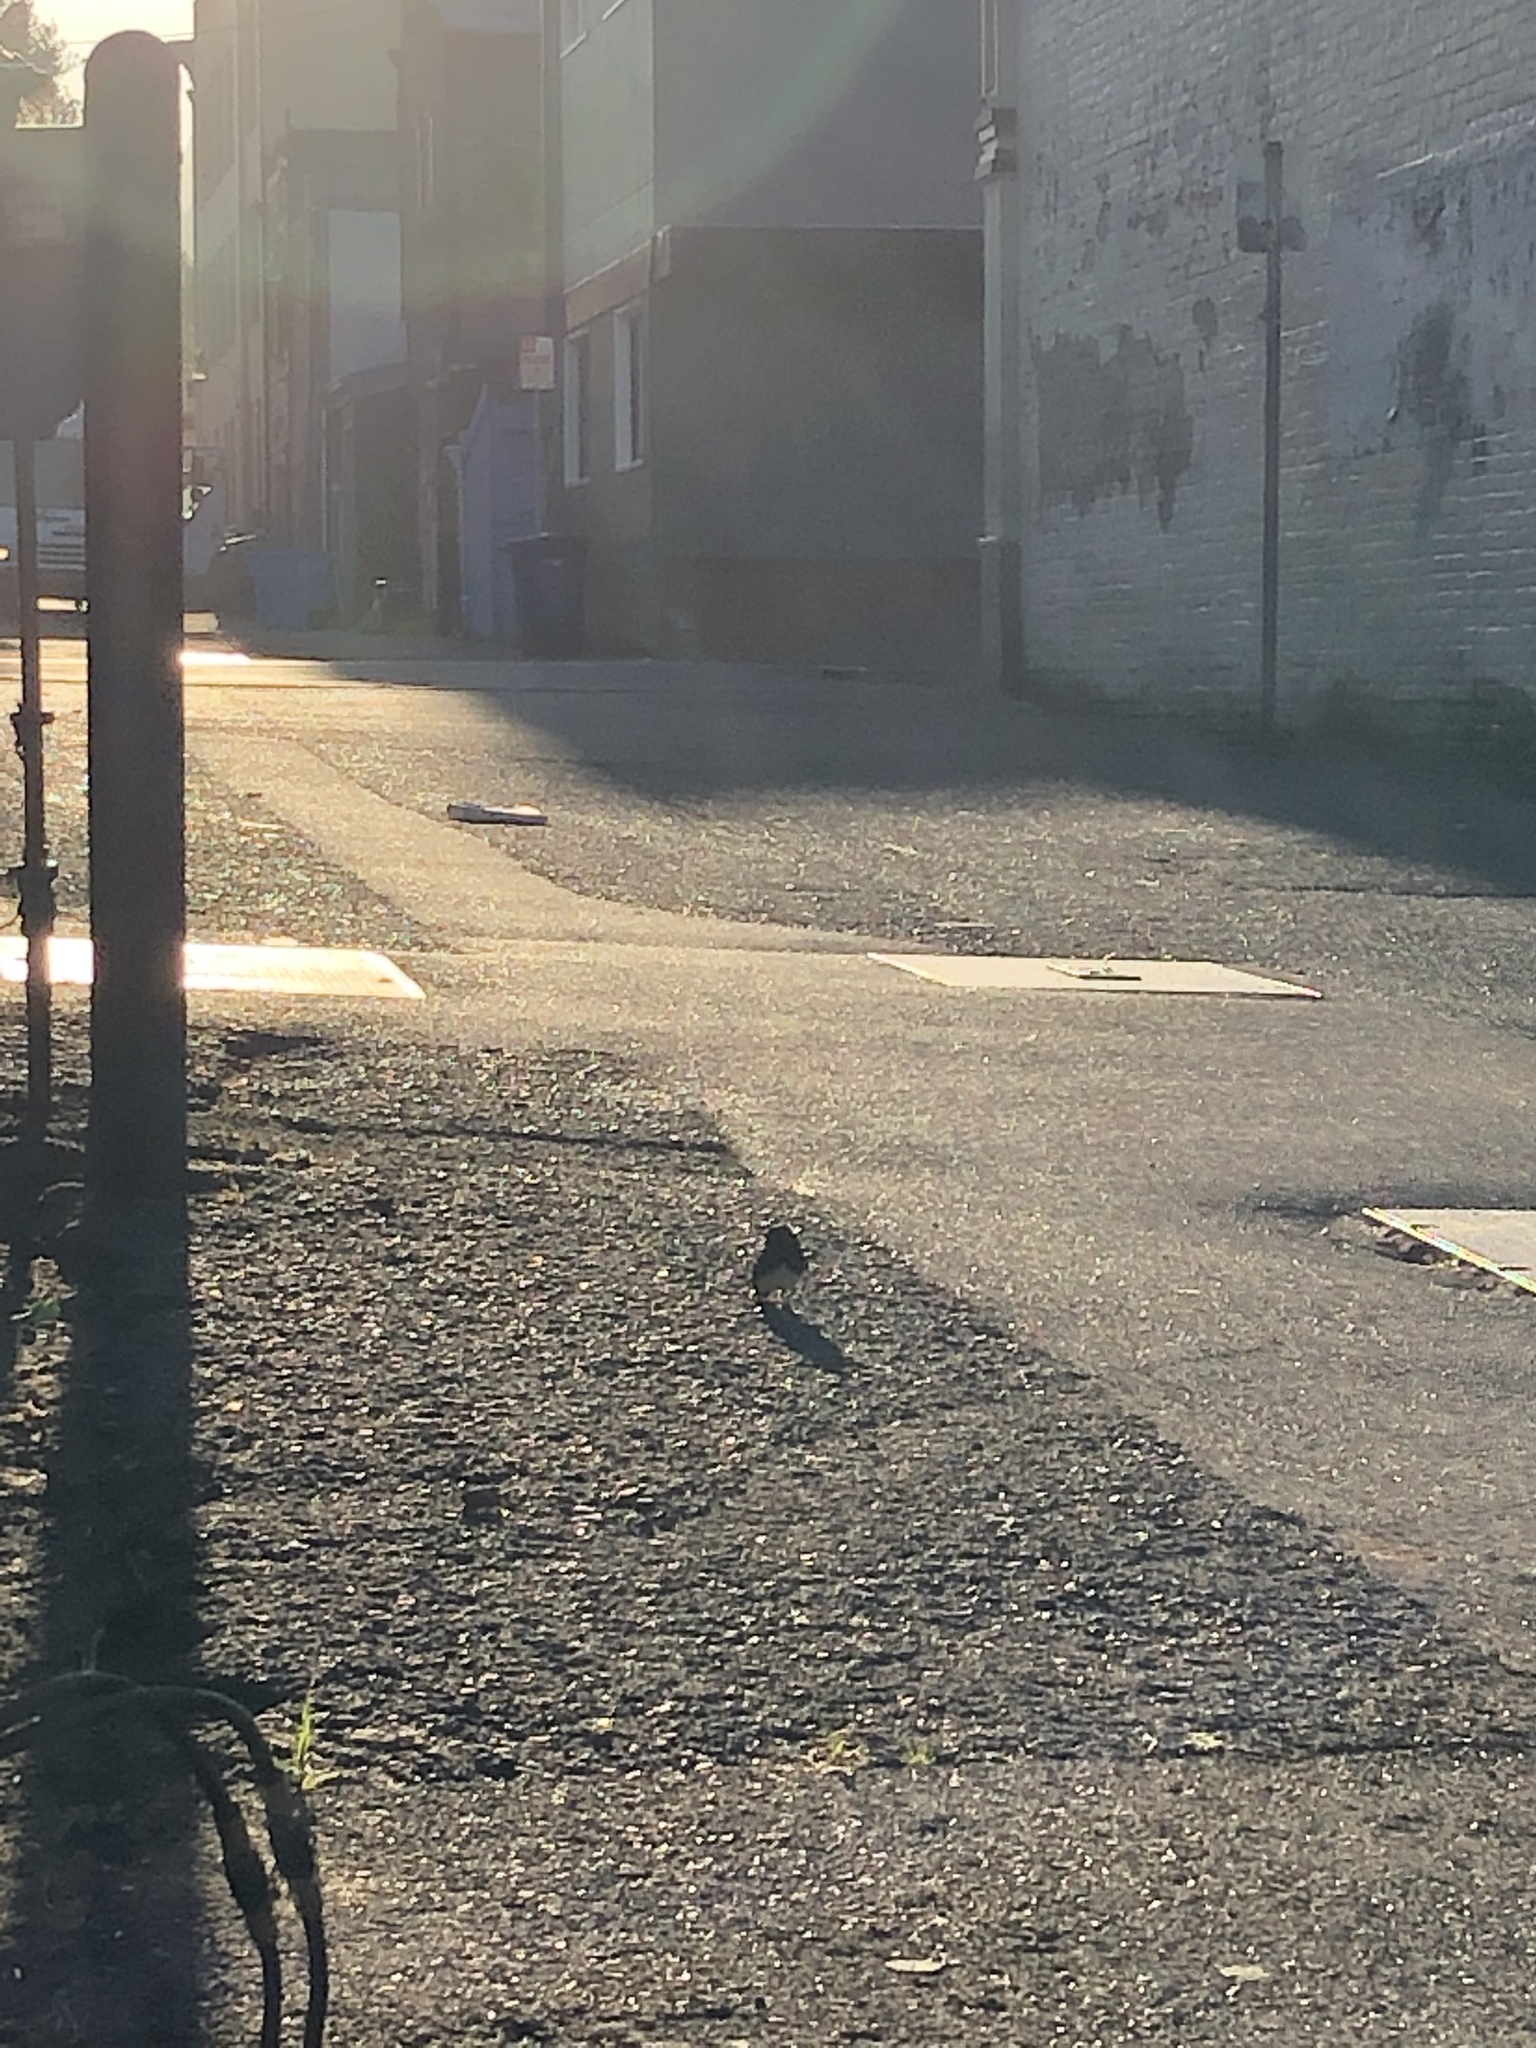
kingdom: Animalia
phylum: Chordata
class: Aves
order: Passeriformes
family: Tyrannidae
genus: Sayornis
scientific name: Sayornis nigricans
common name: Black phoebe
